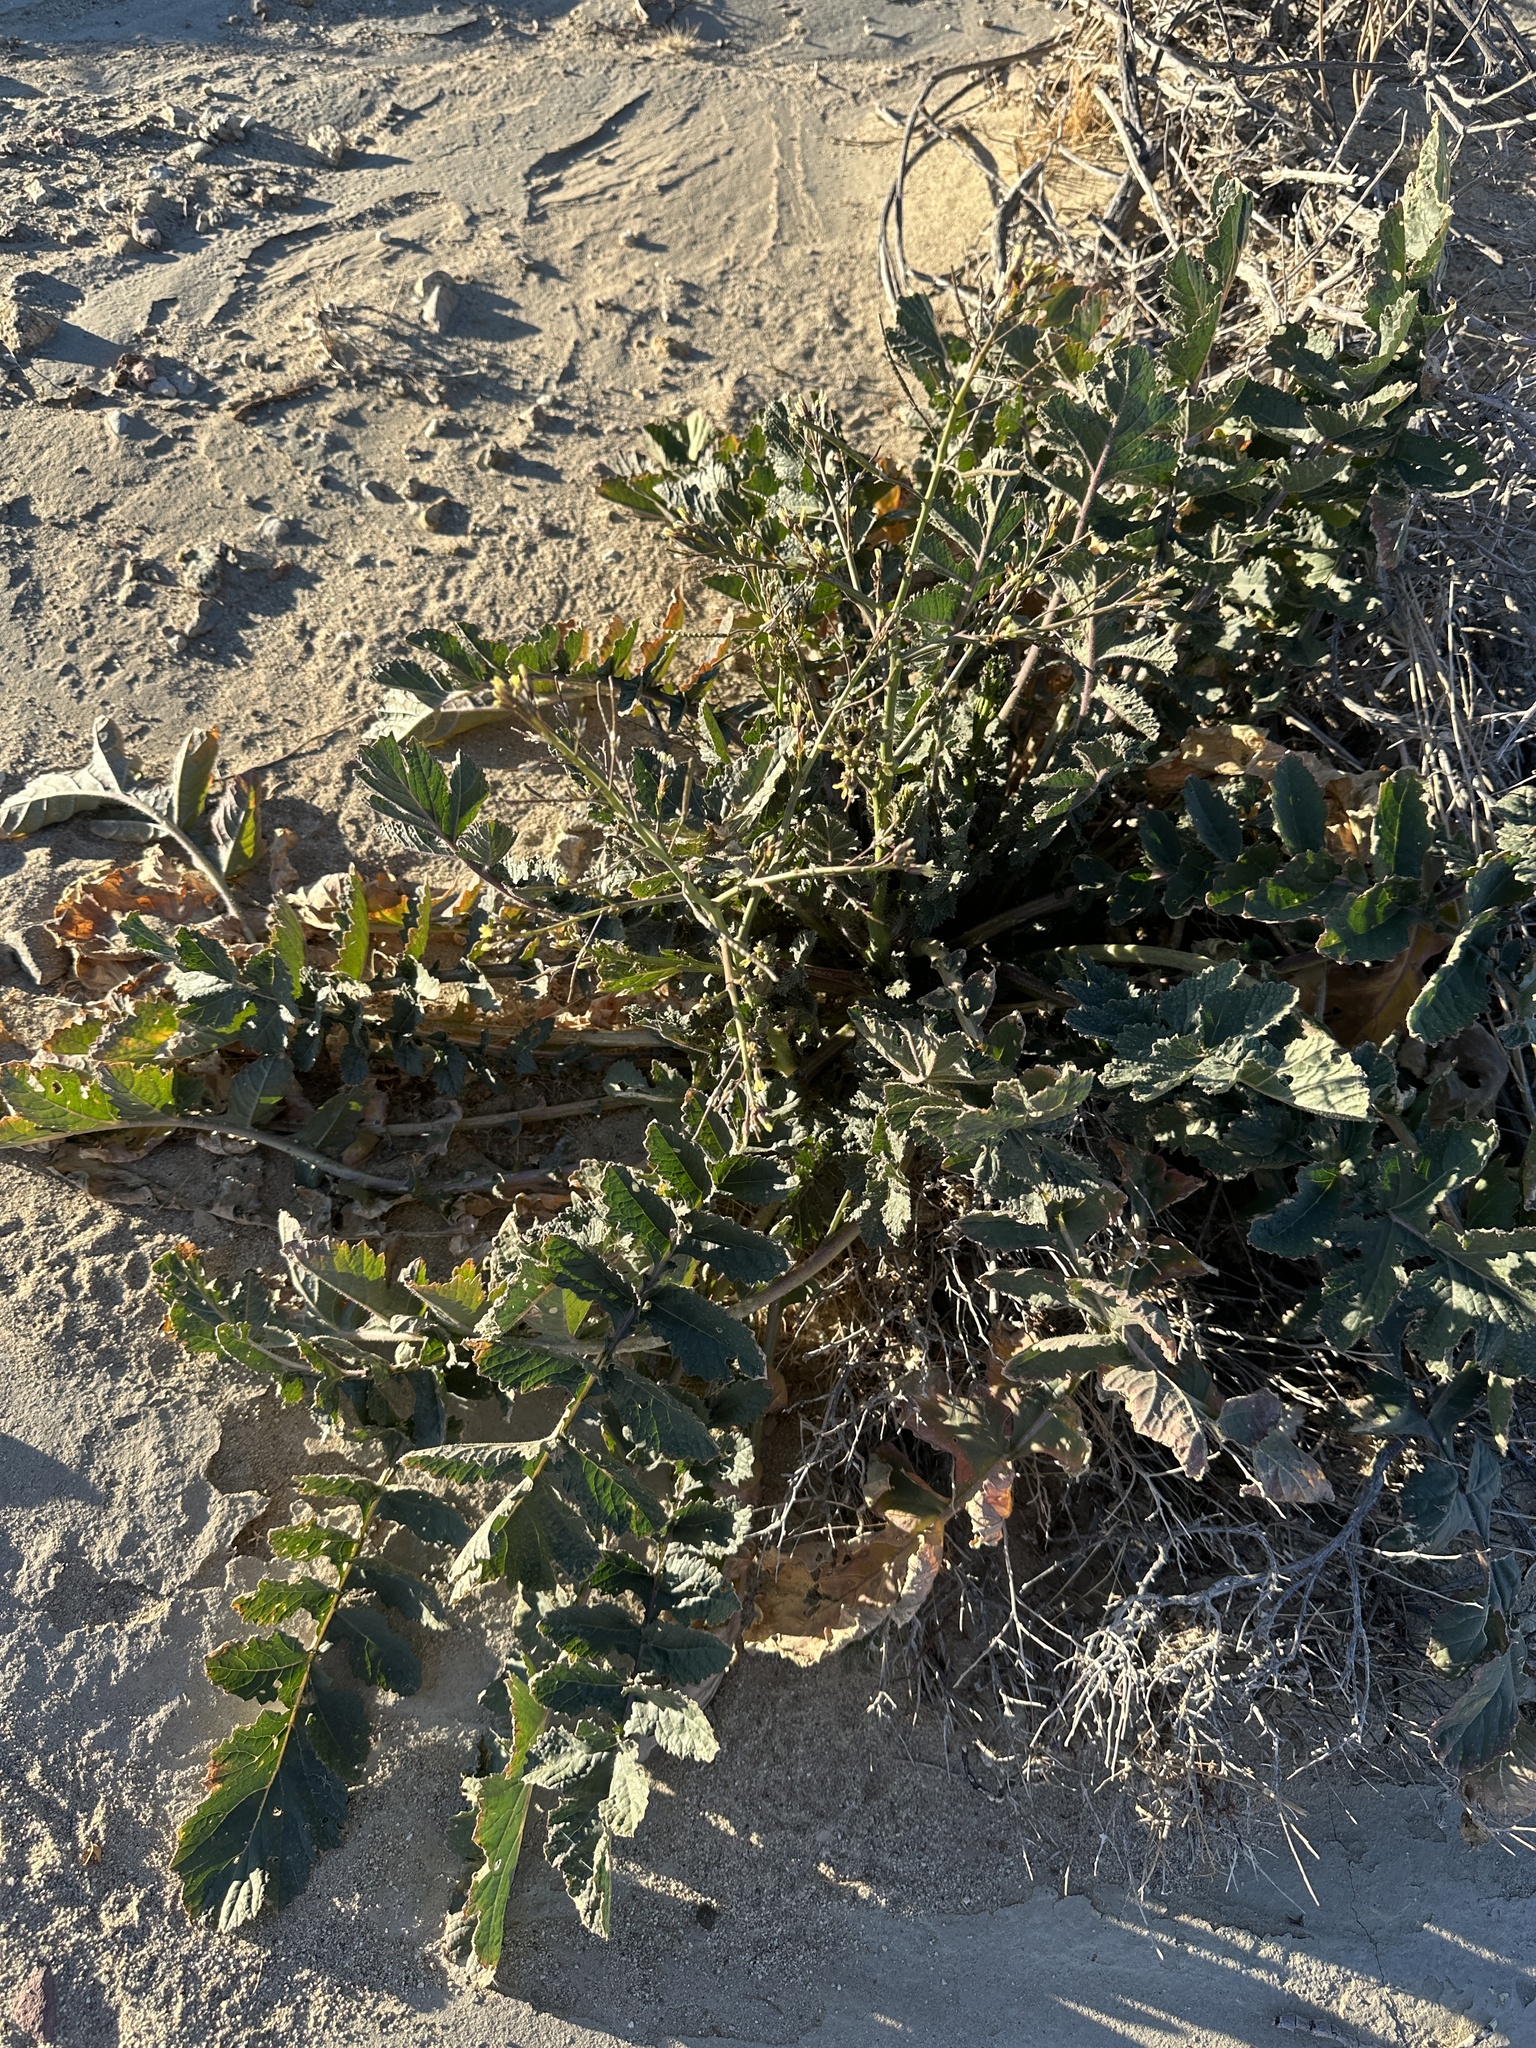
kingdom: Plantae
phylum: Tracheophyta
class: Magnoliopsida
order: Brassicales
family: Brassicaceae
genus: Brassica
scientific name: Brassica tournefortii
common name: Pale cabbage
